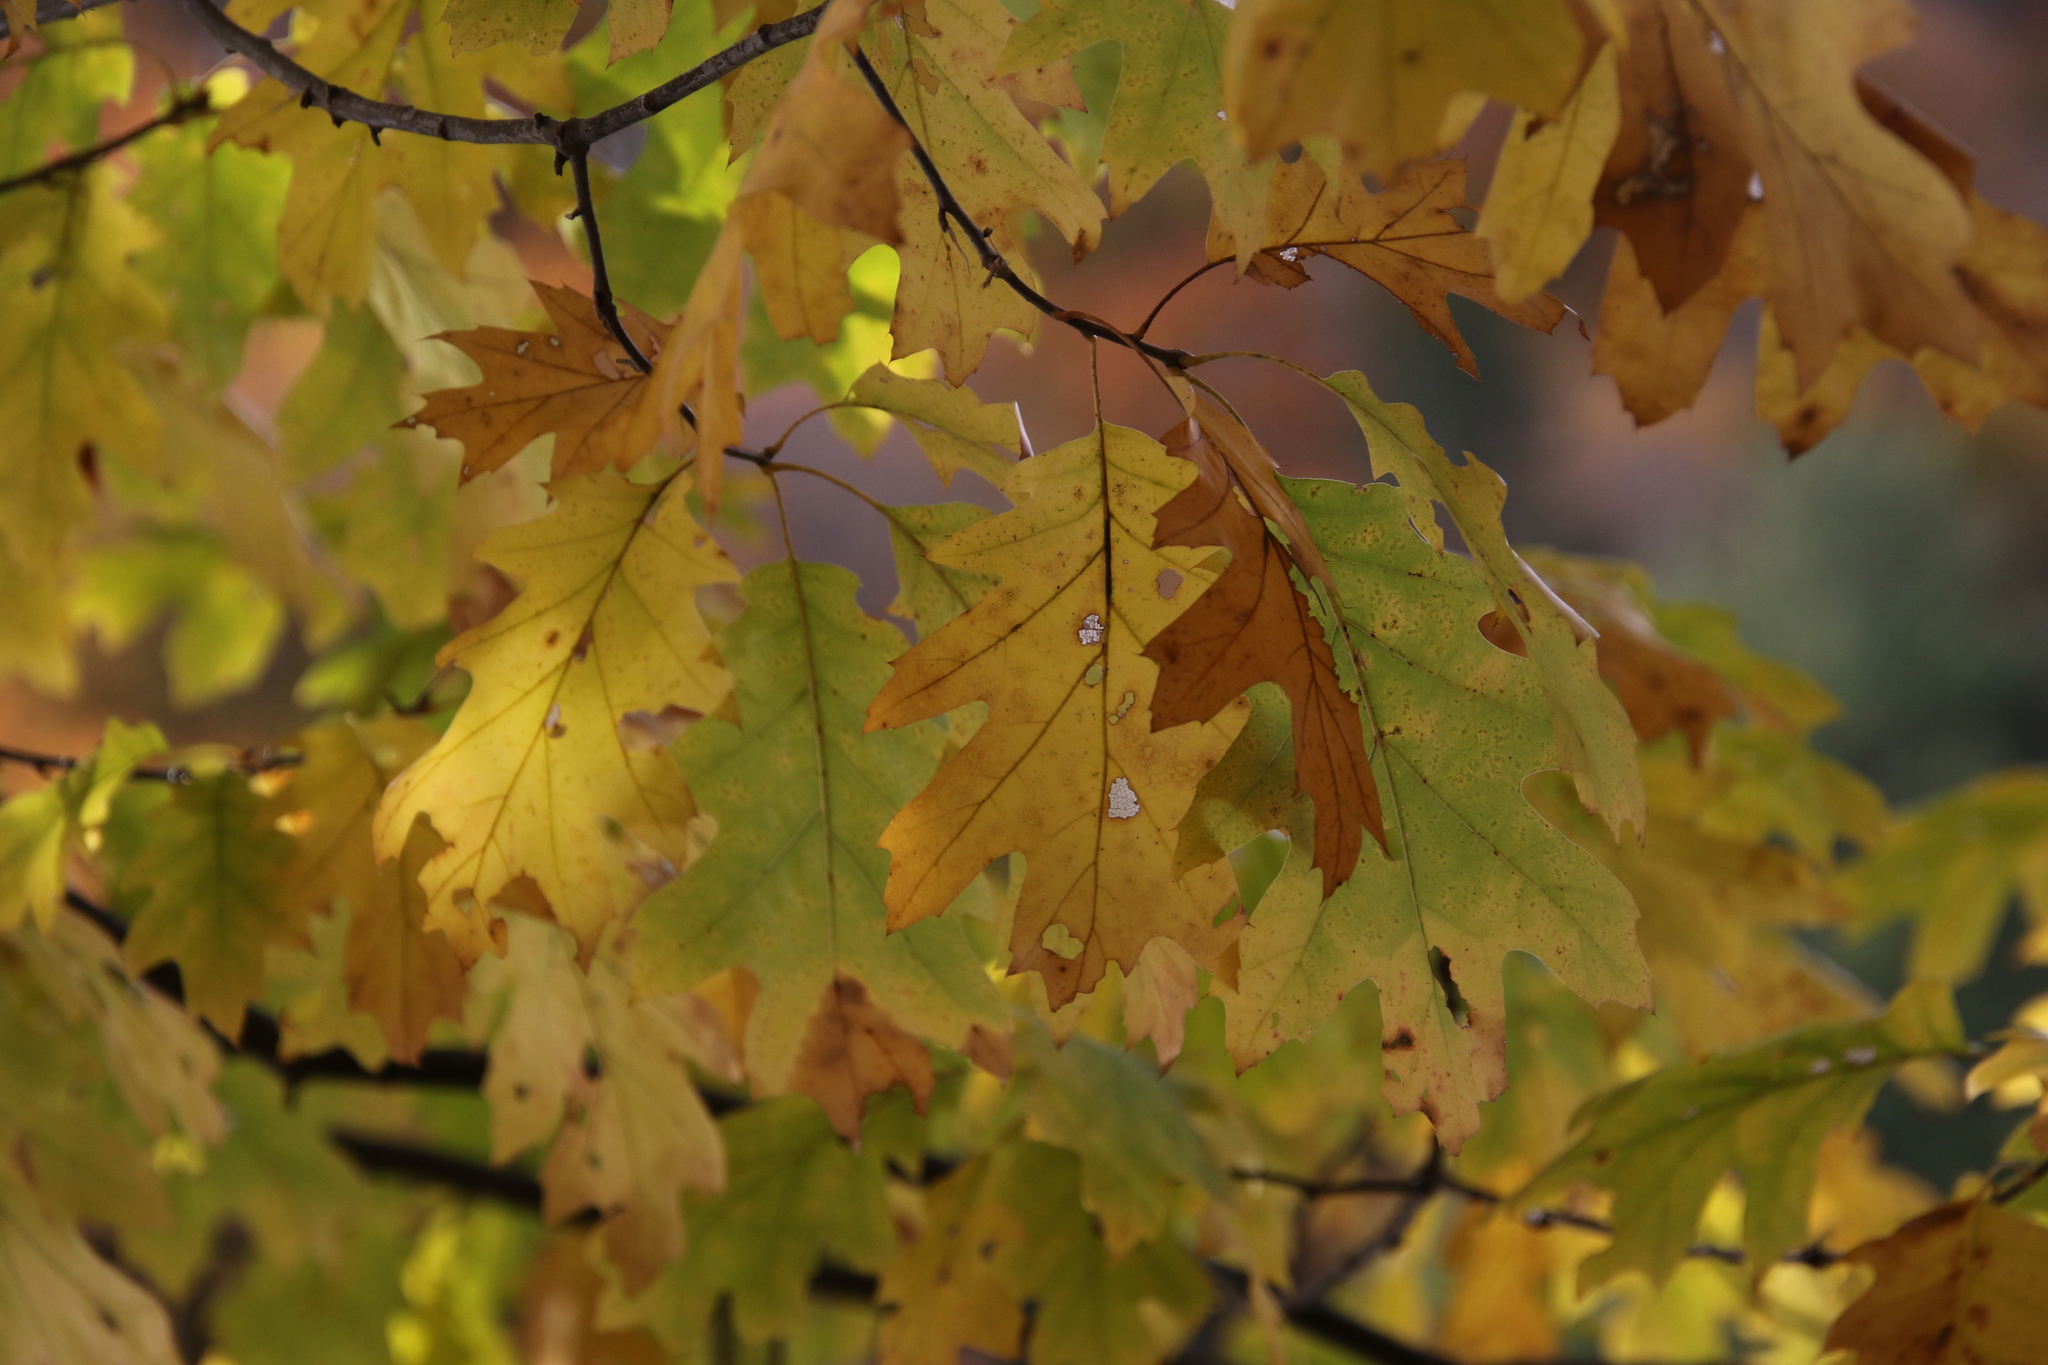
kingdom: Plantae
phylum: Tracheophyta
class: Magnoliopsida
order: Fagales
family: Fagaceae
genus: Quercus
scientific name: Quercus rubra
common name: Red oak
